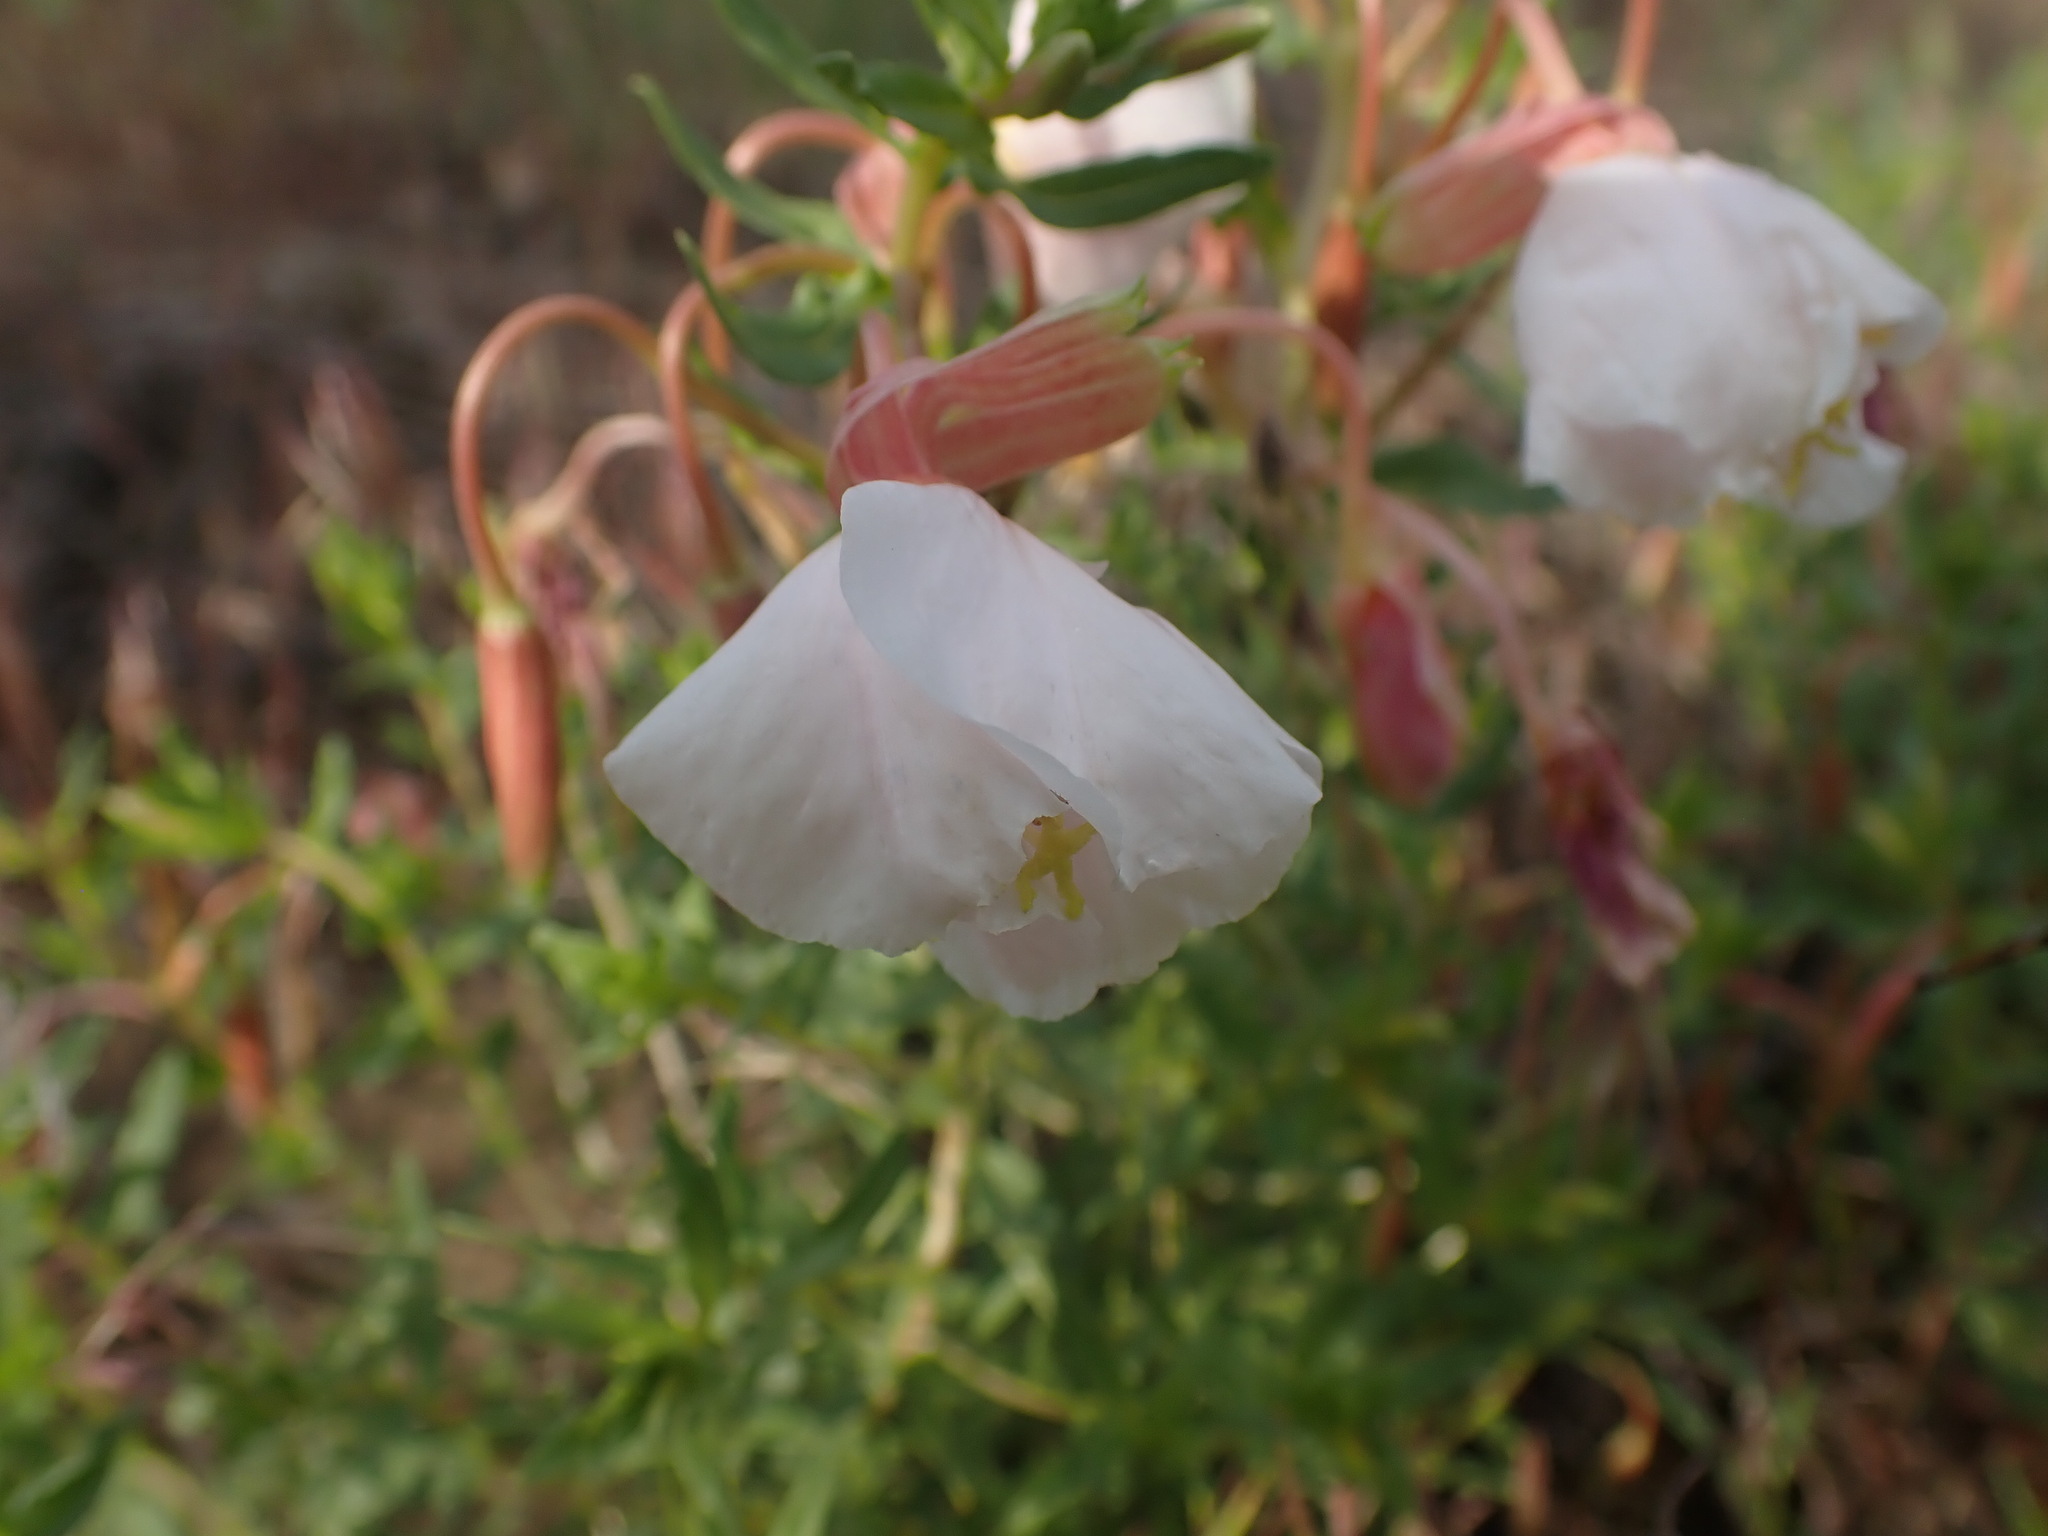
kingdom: Plantae
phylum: Tracheophyta
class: Magnoliopsida
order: Myrtales
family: Onagraceae
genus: Oenothera
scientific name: Oenothera pallida
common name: Pale evening-primrose
